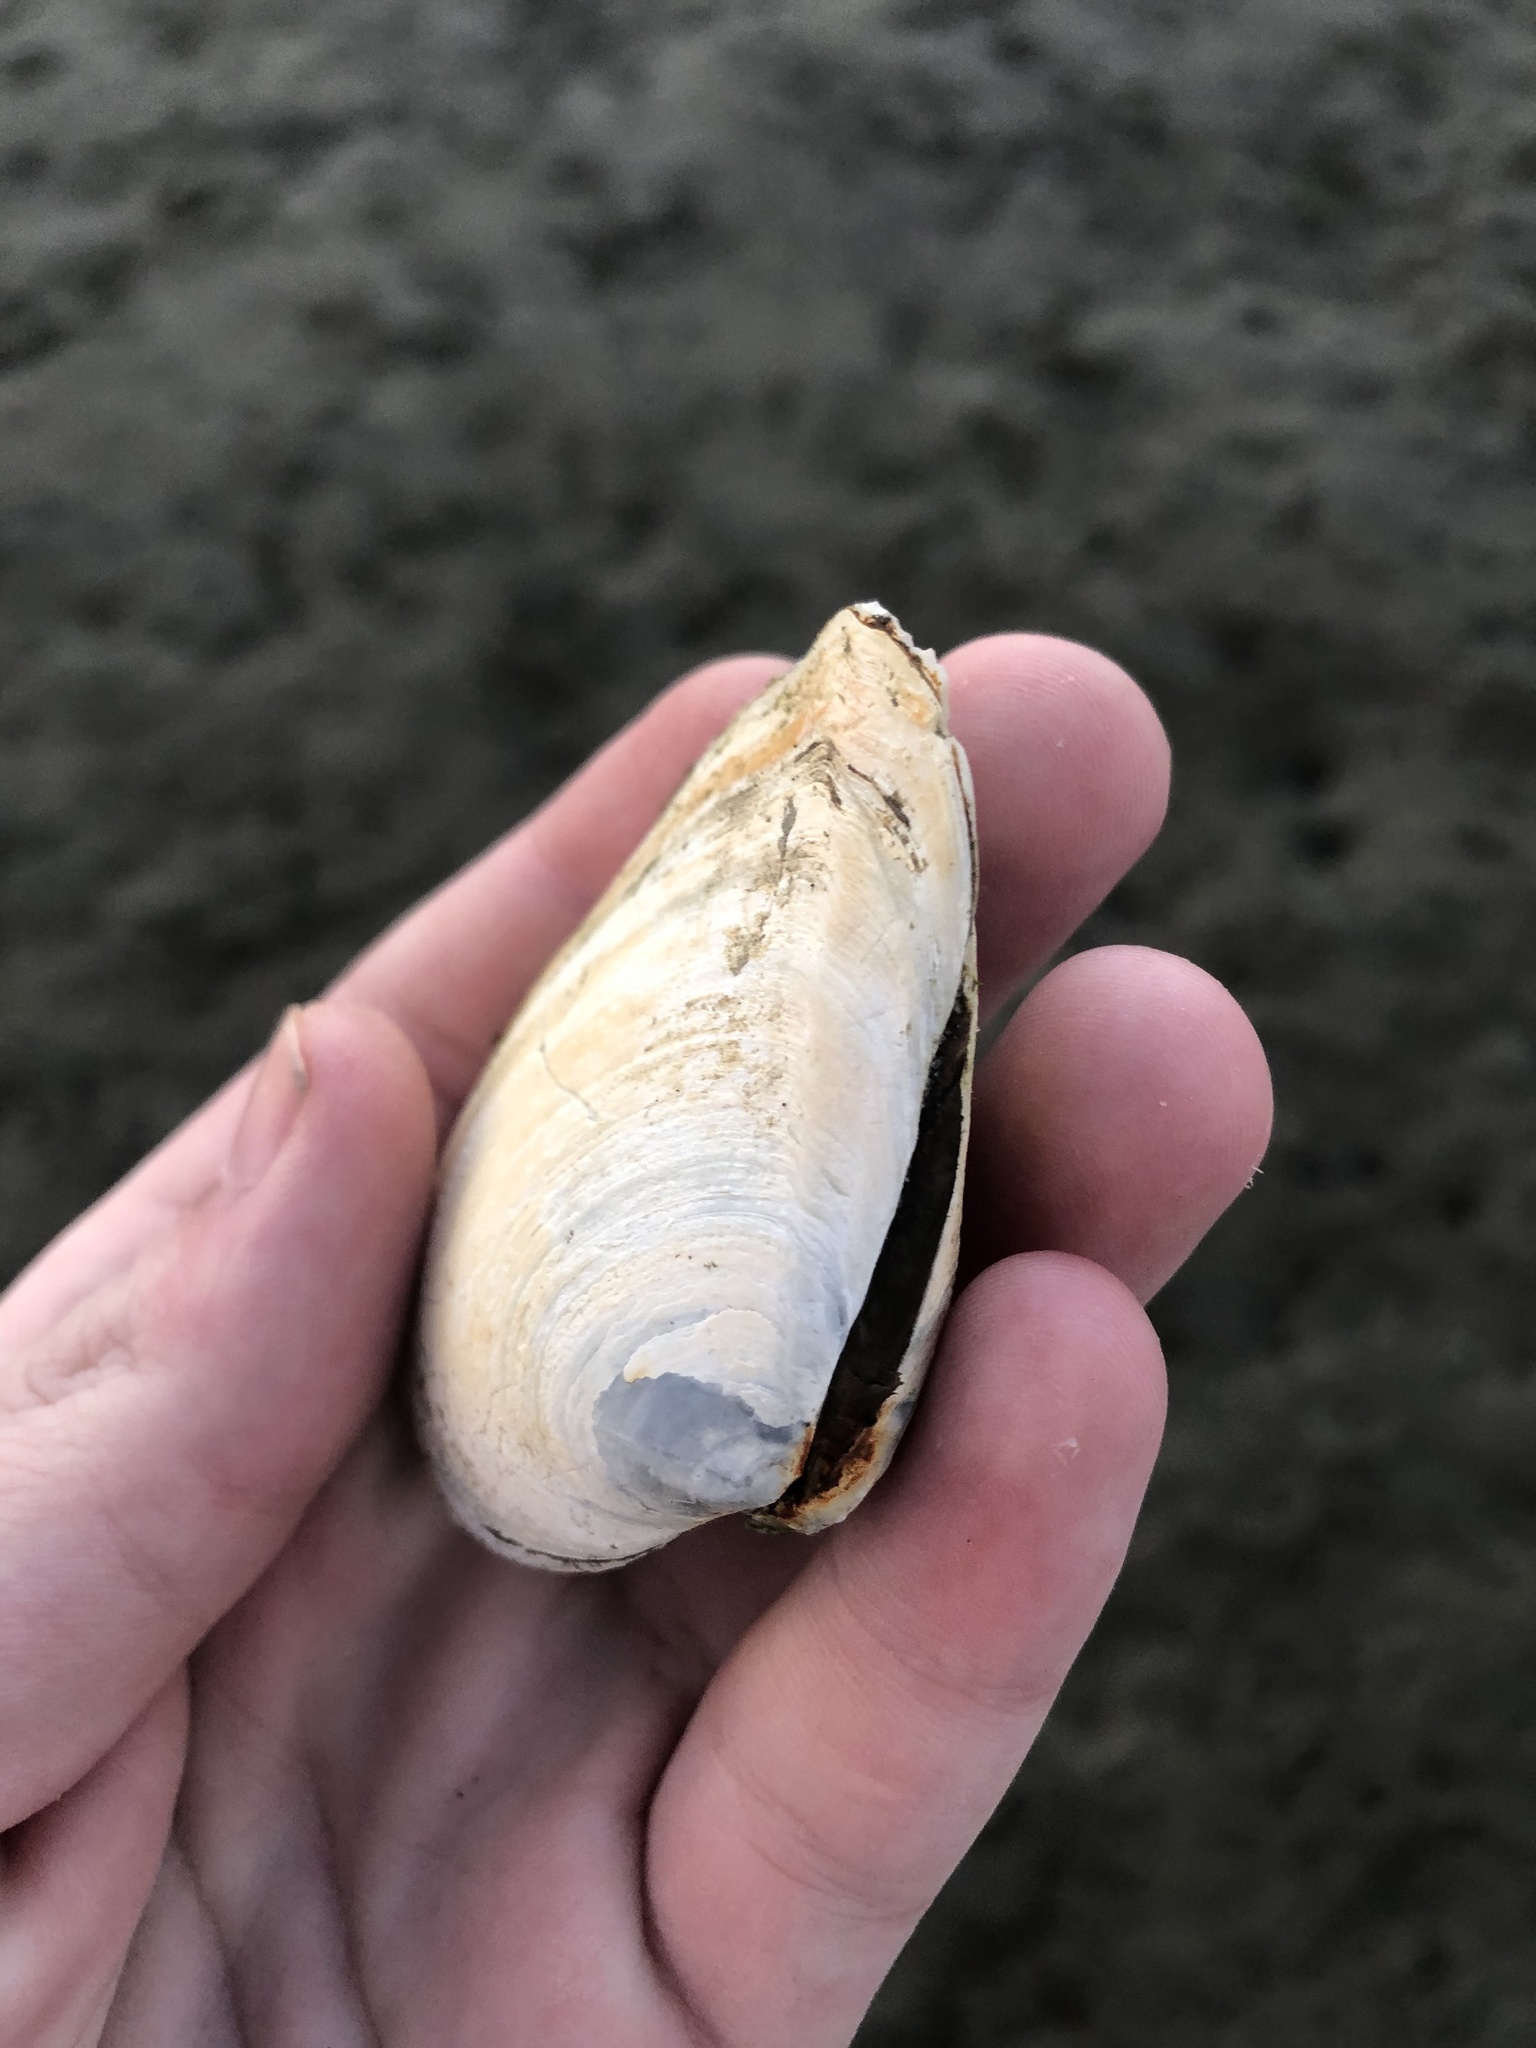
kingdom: Animalia
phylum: Mollusca
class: Bivalvia
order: Cardiida
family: Tellinidae
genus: Macoma
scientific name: Macoma nasuta
